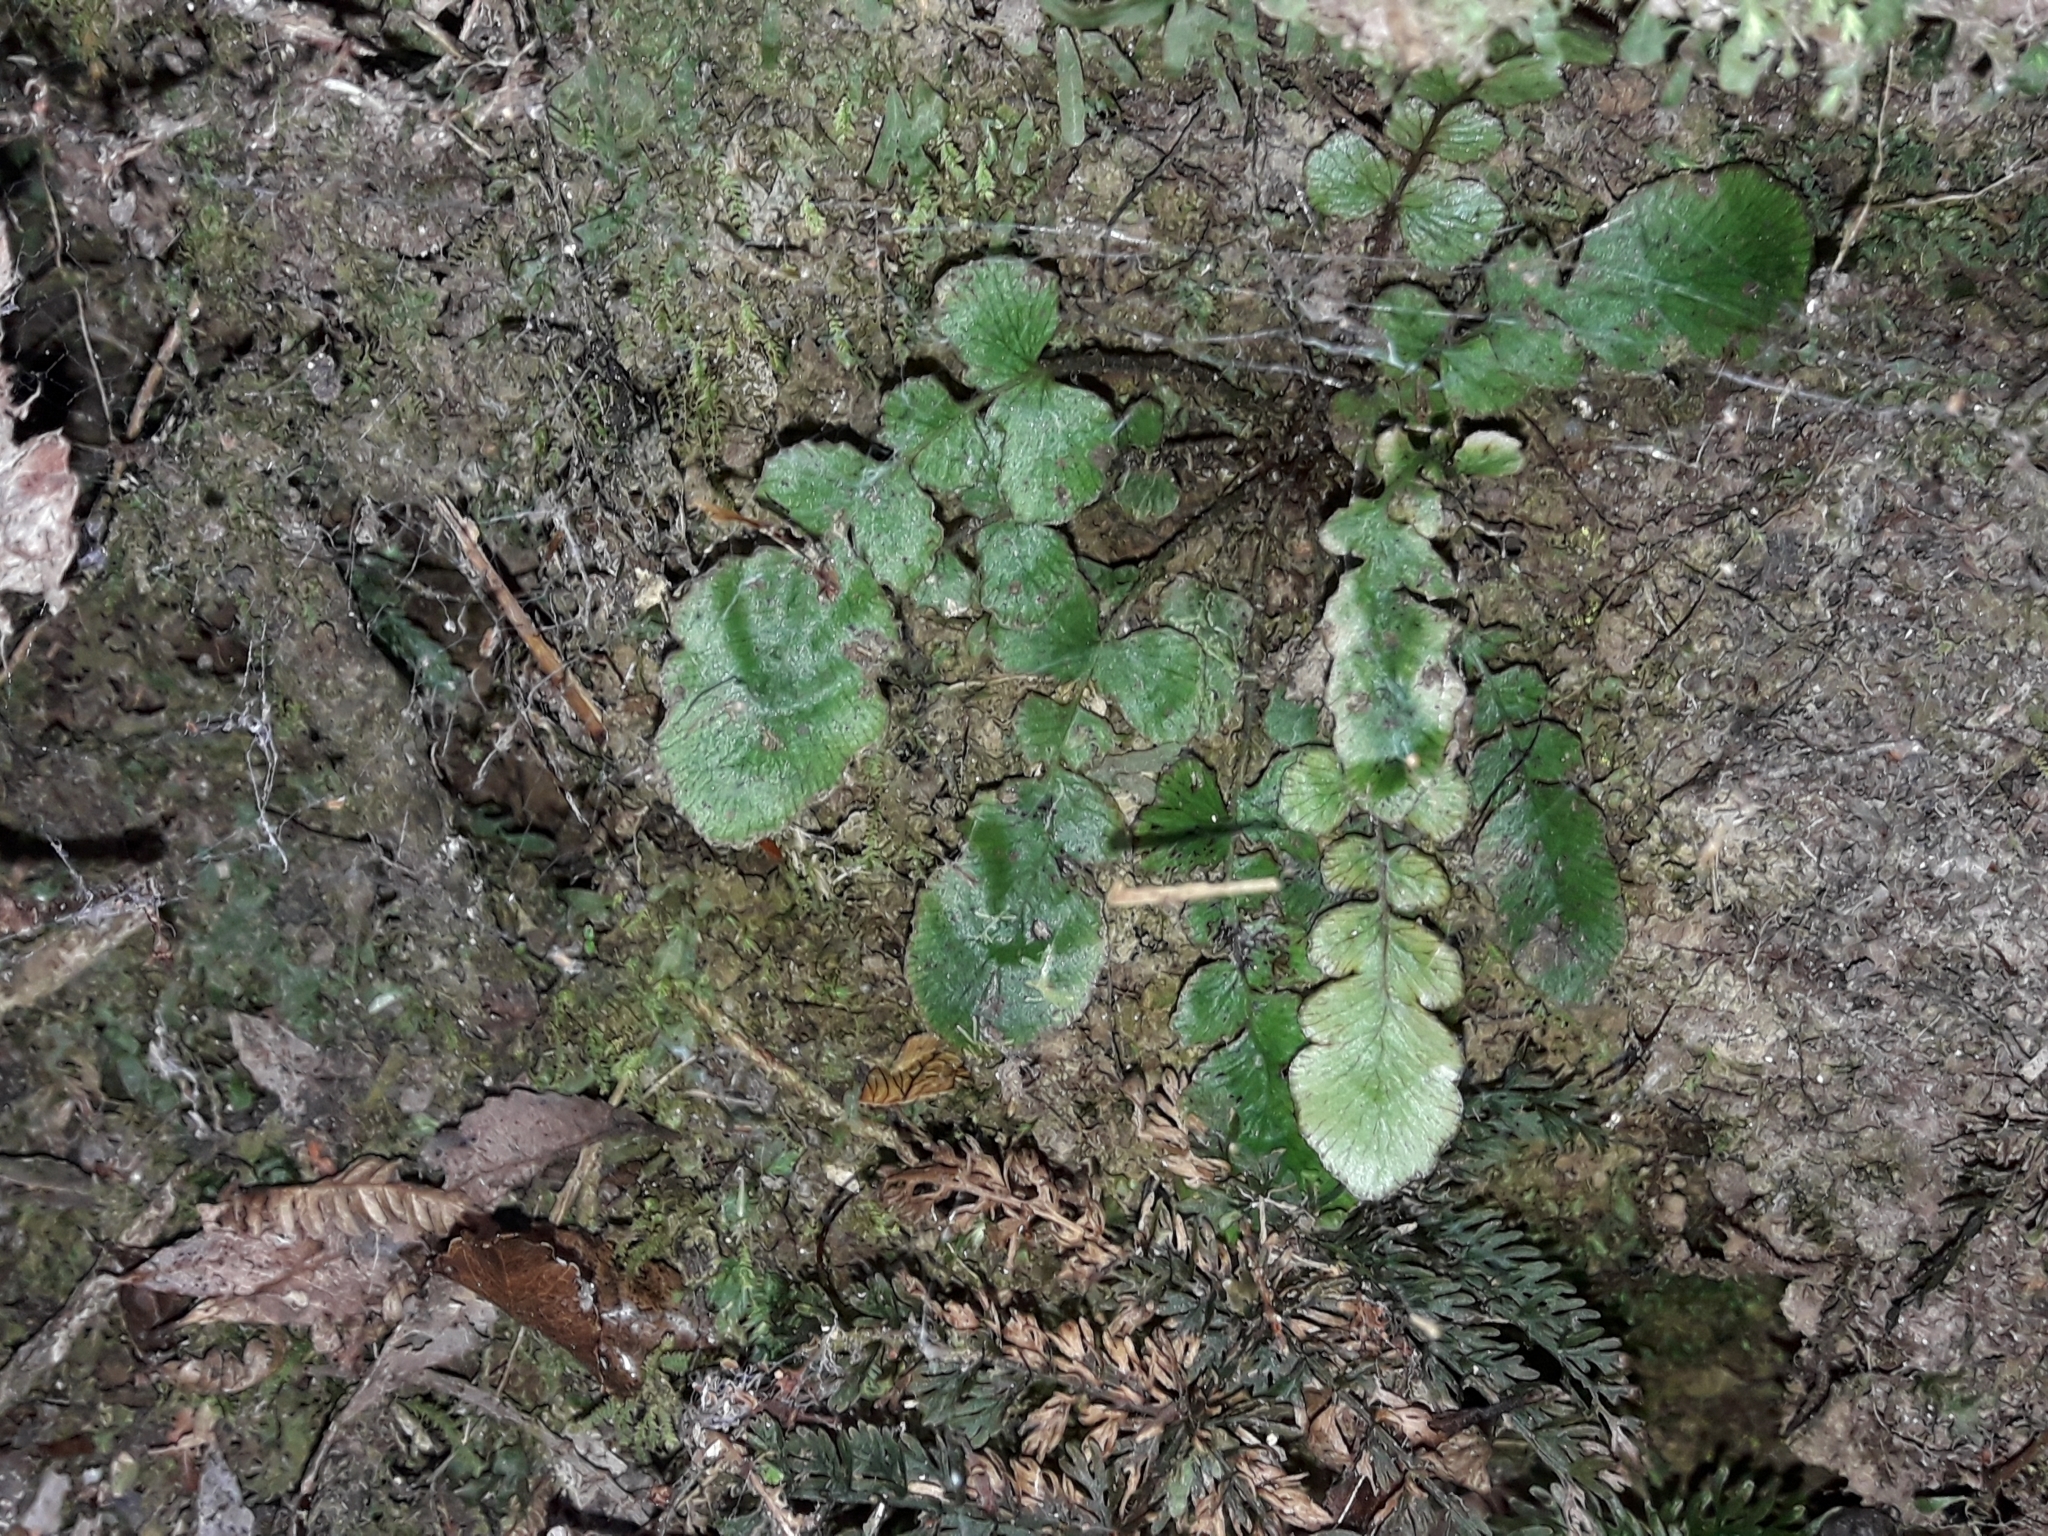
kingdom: Plantae
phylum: Tracheophyta
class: Polypodiopsida
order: Polypodiales
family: Blechnaceae
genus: Cranfillia
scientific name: Cranfillia nigra
